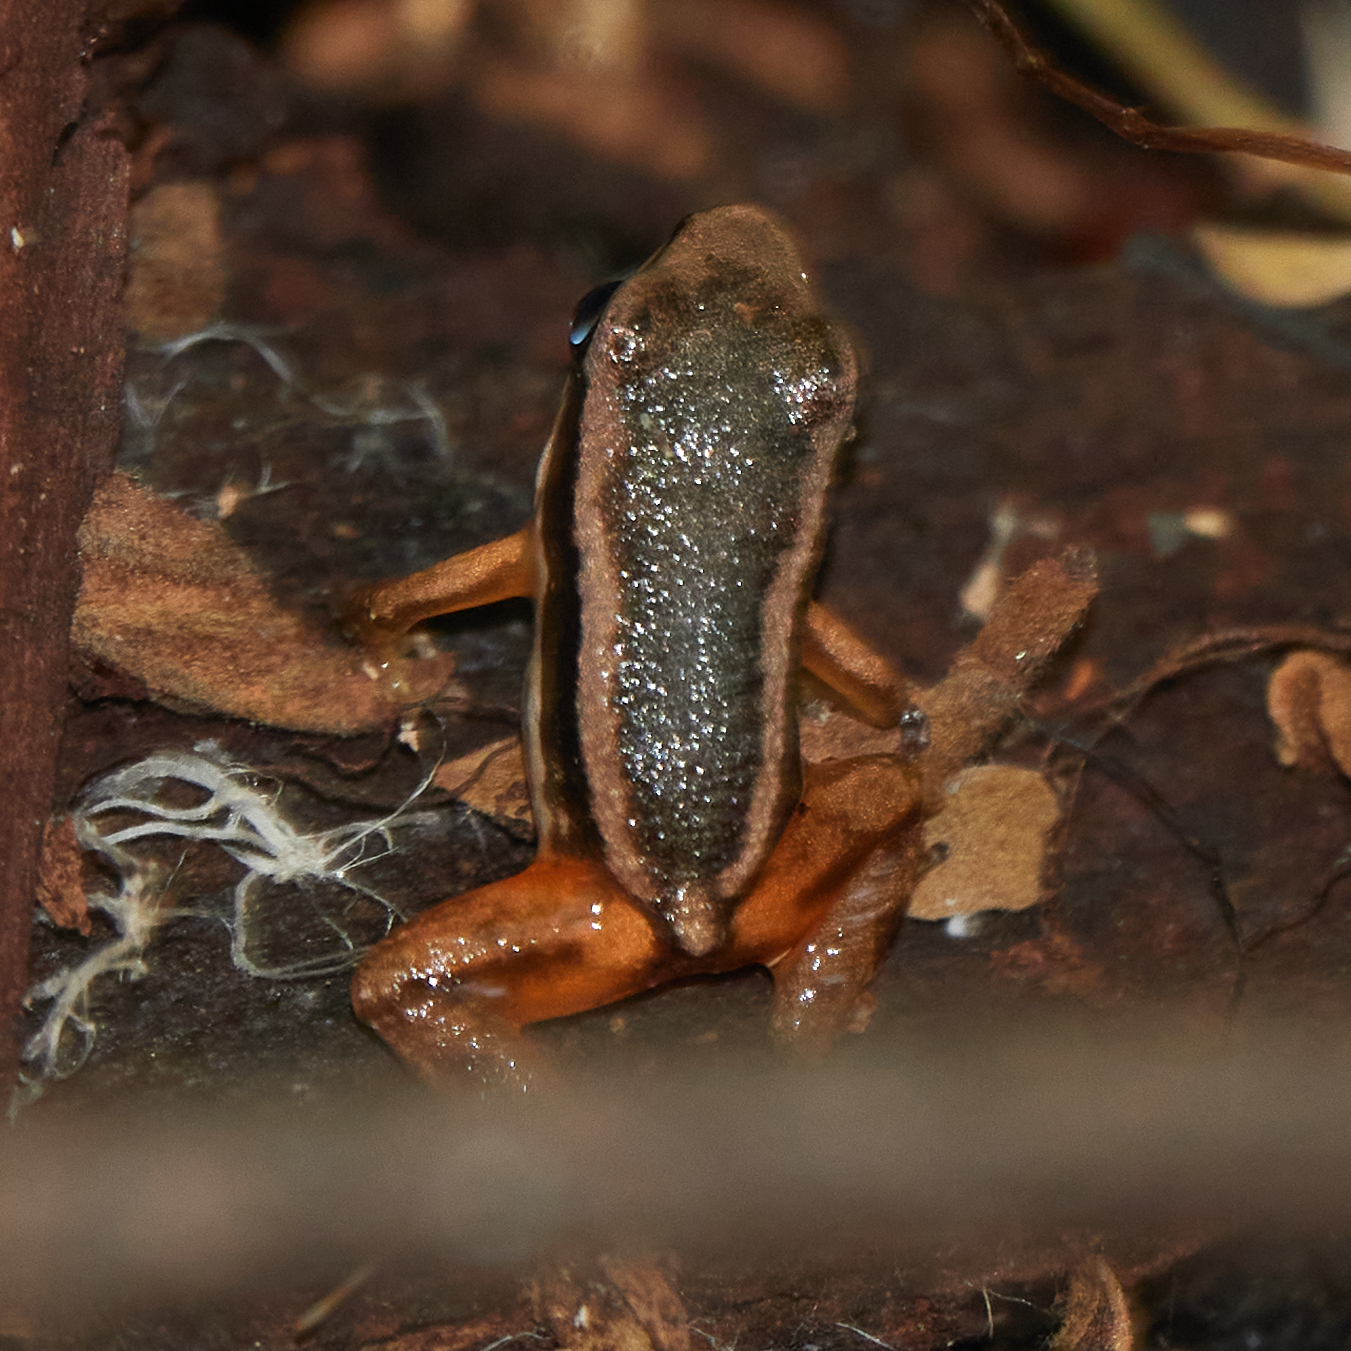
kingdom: Animalia
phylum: Chordata
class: Amphibia
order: Anura
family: Dendrobatidae
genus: Silverstoneia
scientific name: Silverstoneia flotator
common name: Rainforest rocket frog
